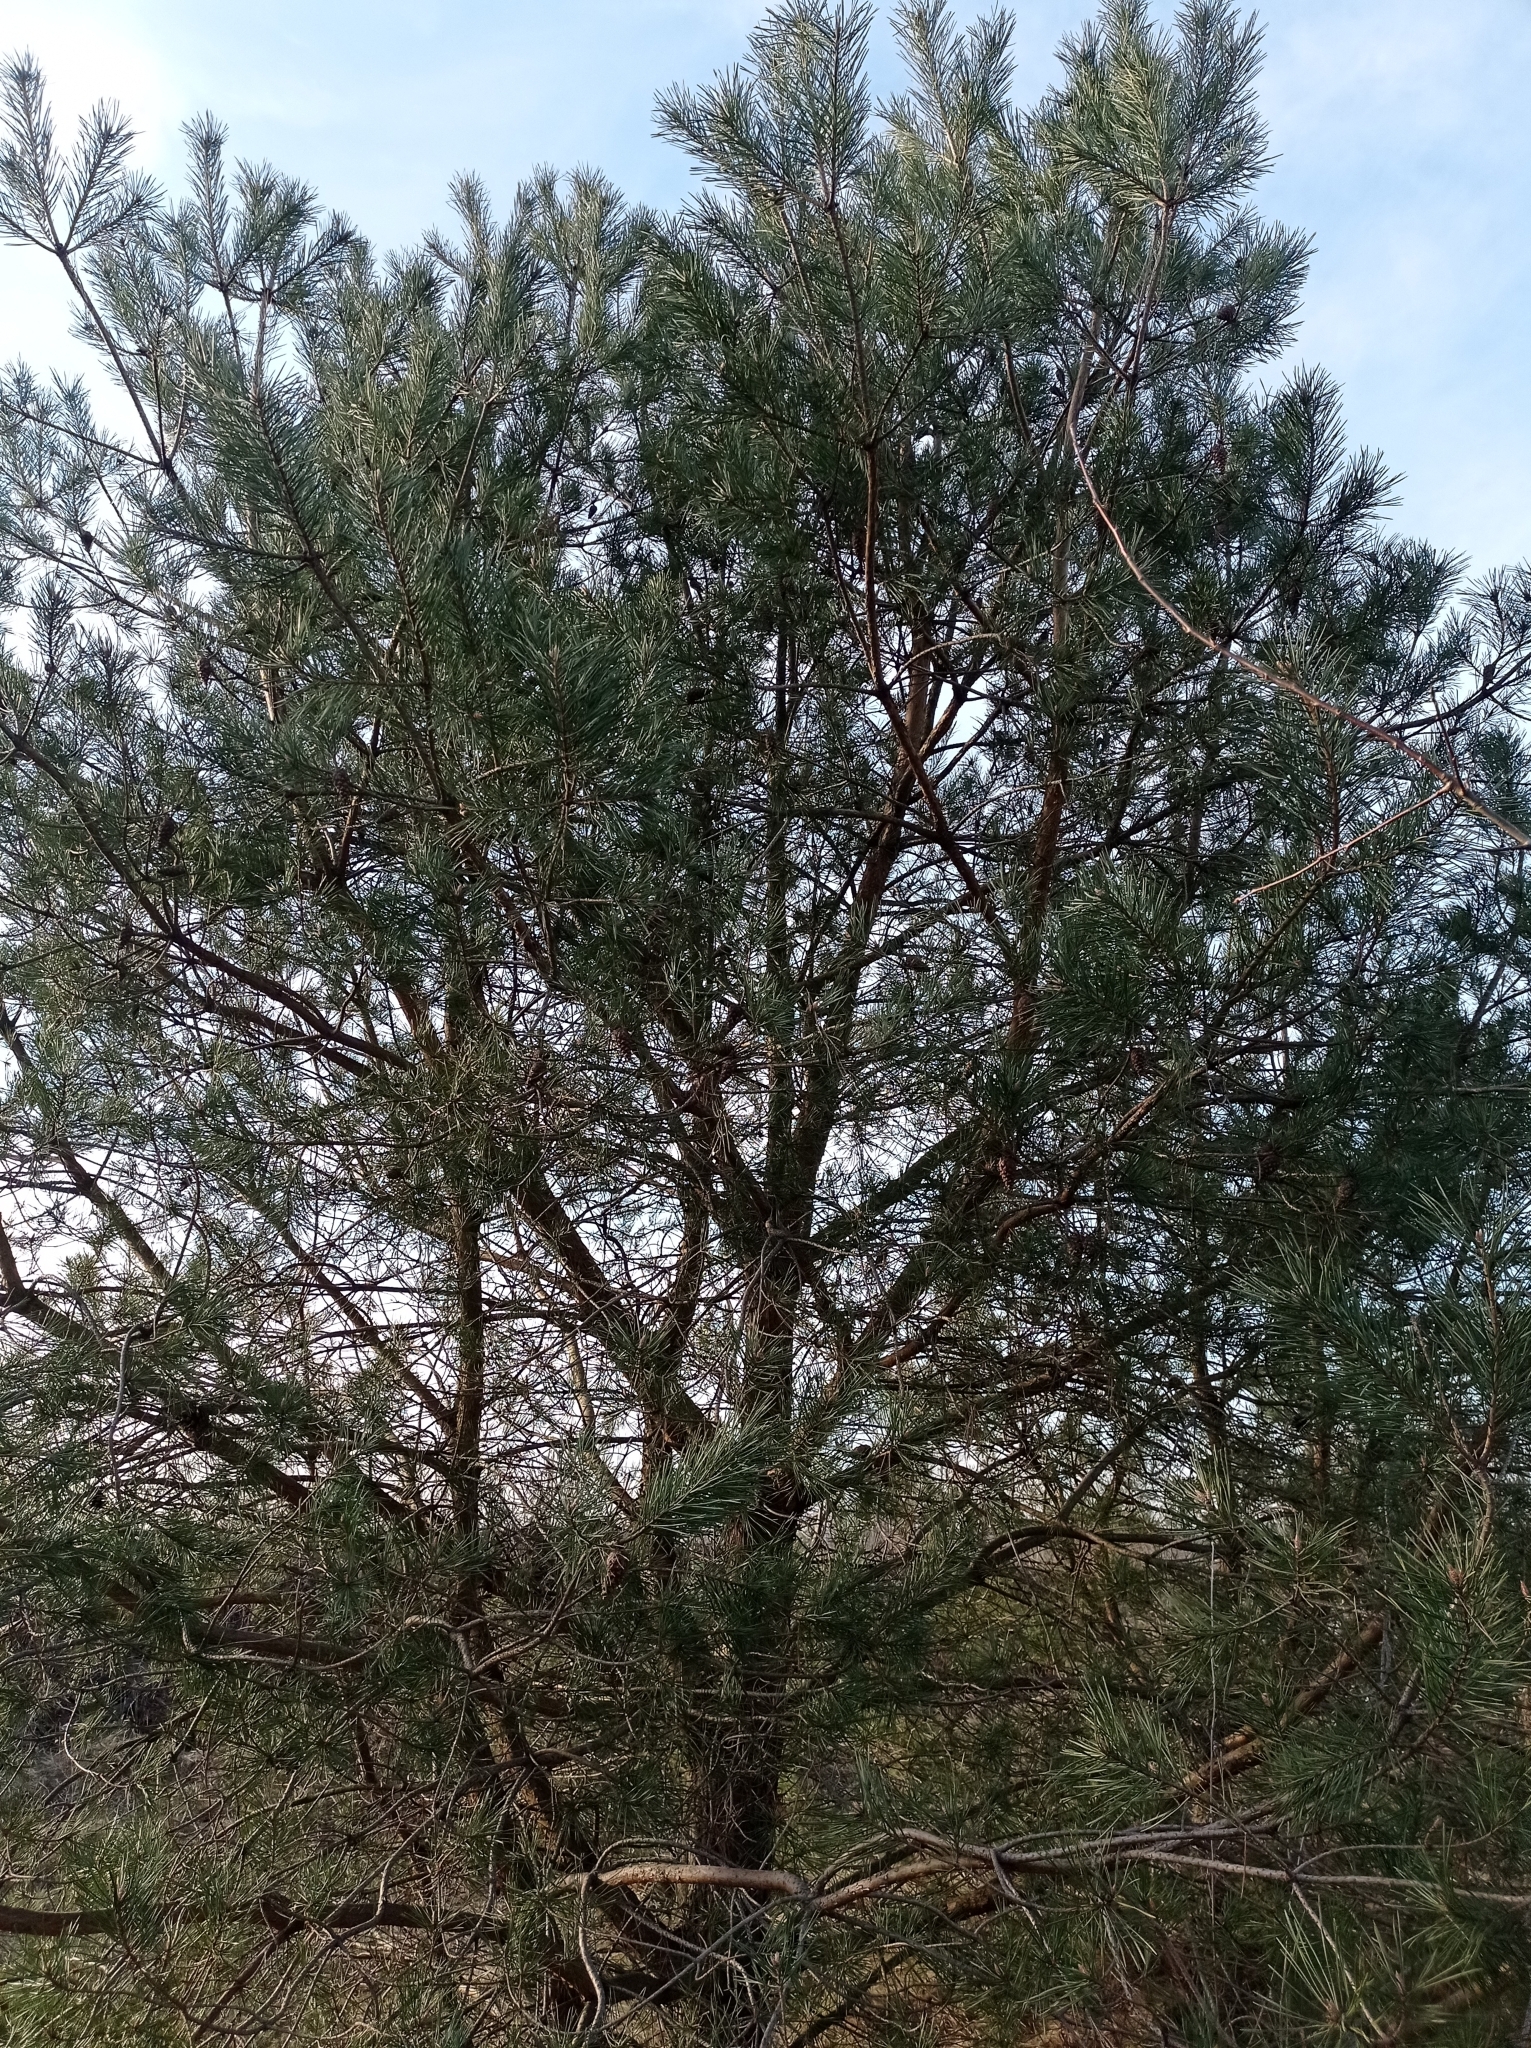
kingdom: Plantae
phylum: Tracheophyta
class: Pinopsida
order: Pinales
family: Pinaceae
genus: Pinus
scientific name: Pinus sylvestris
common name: Scots pine
